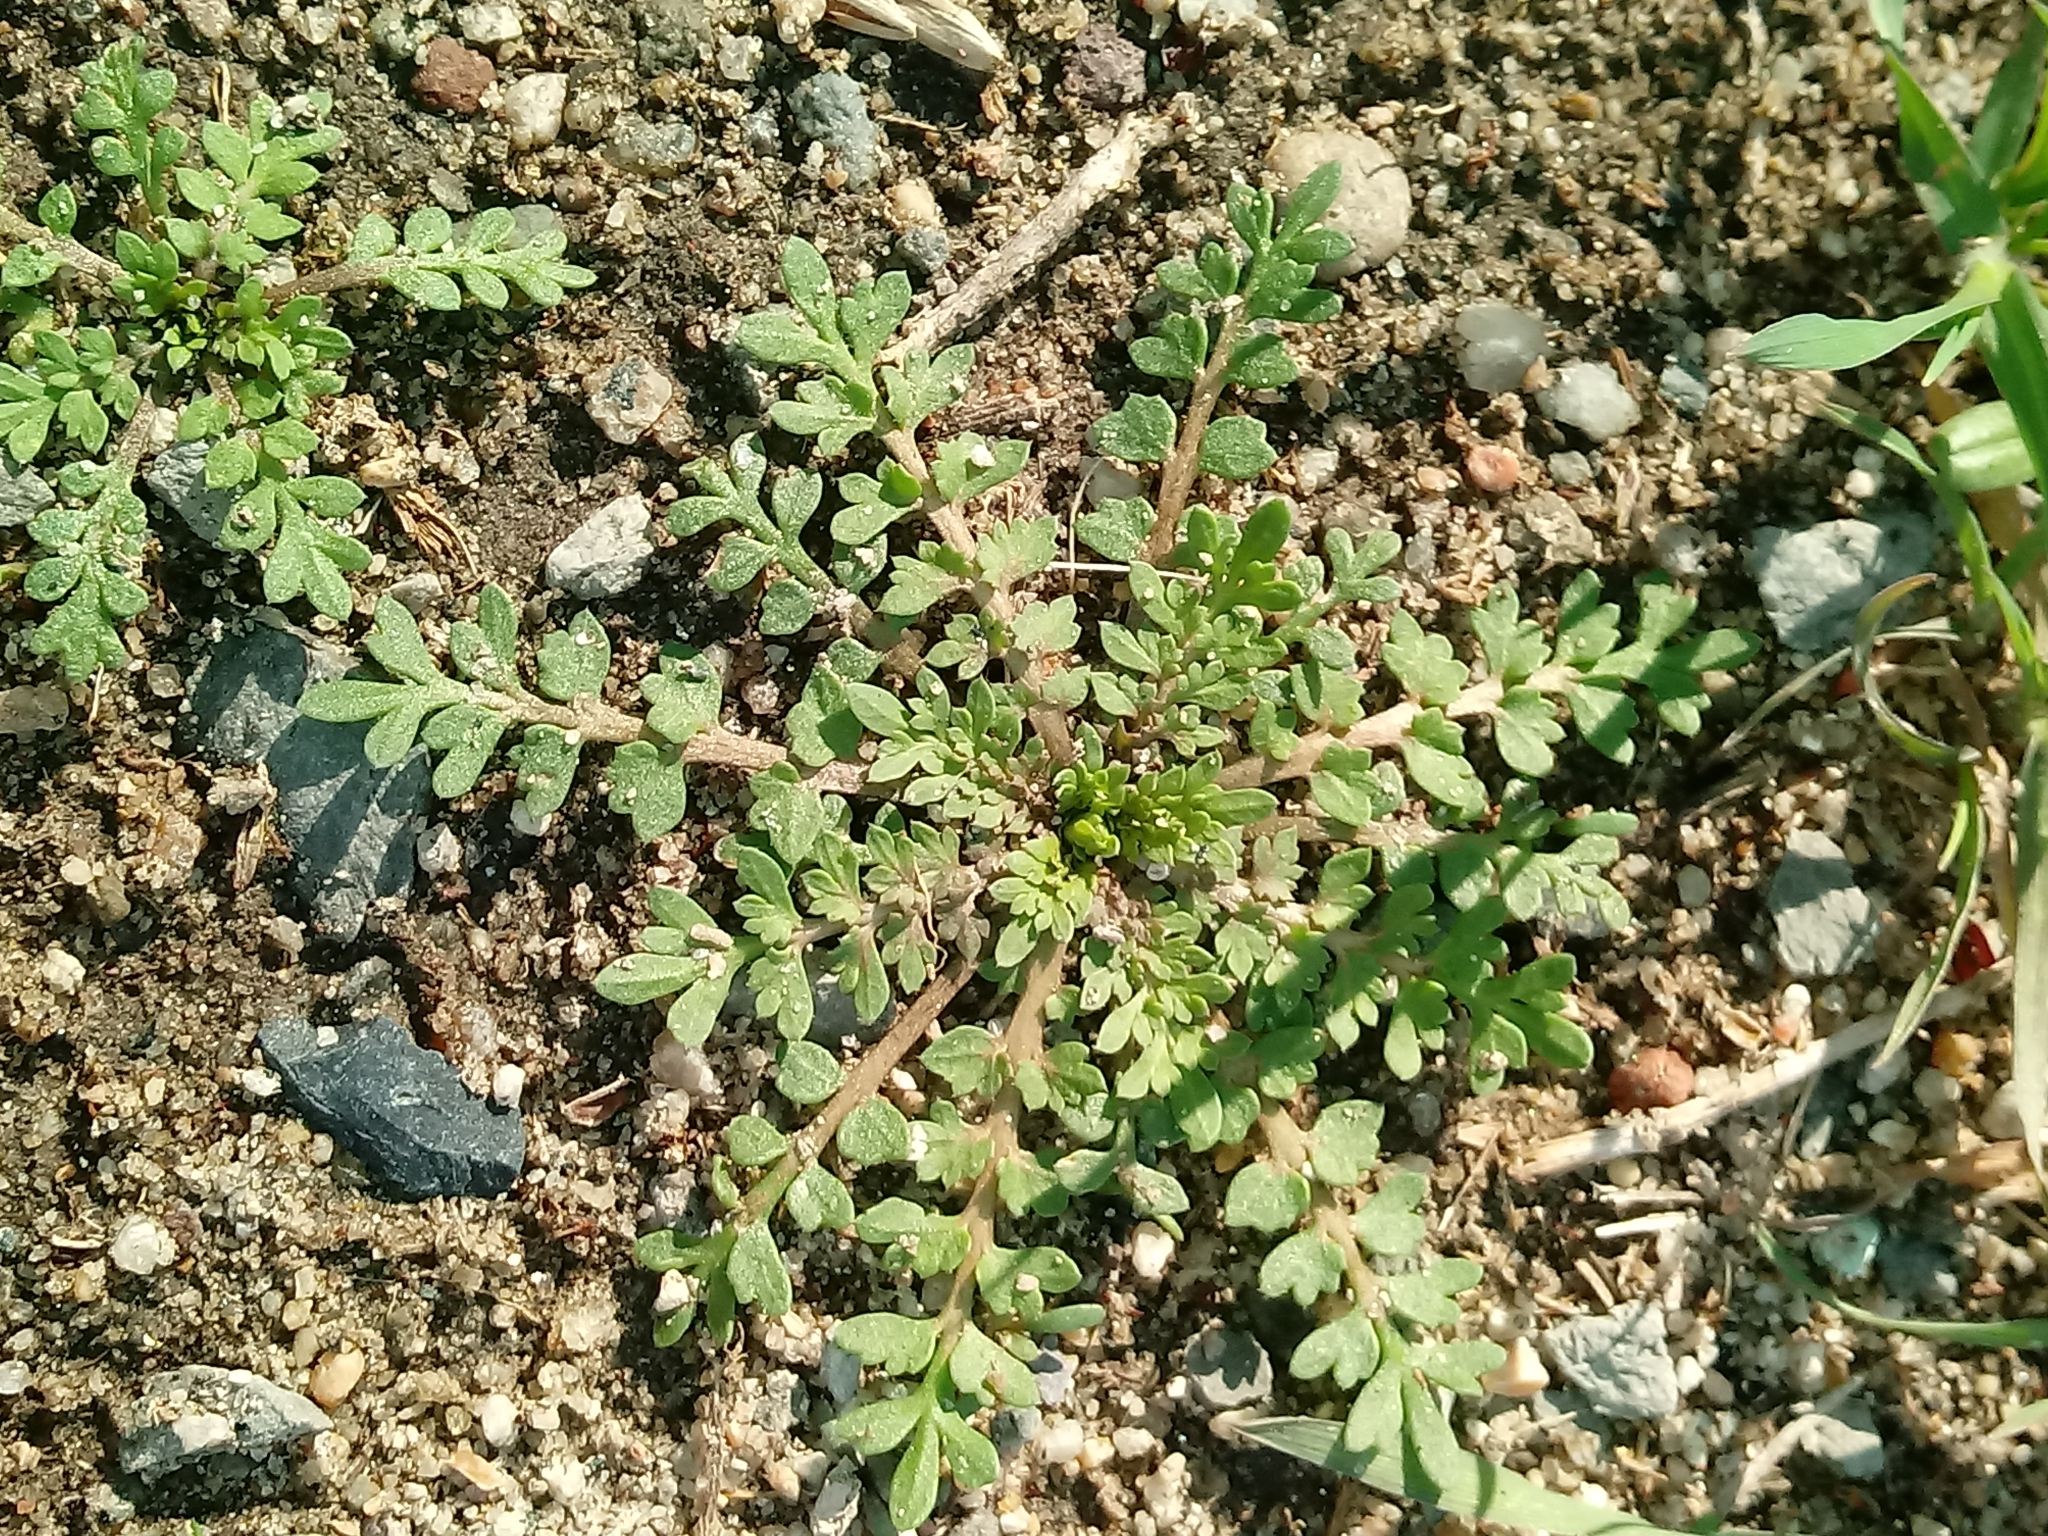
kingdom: Plantae
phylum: Tracheophyta
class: Magnoliopsida
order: Brassicales
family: Brassicaceae
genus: Lepidium
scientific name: Lepidium didymum
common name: Lesser swinecress
